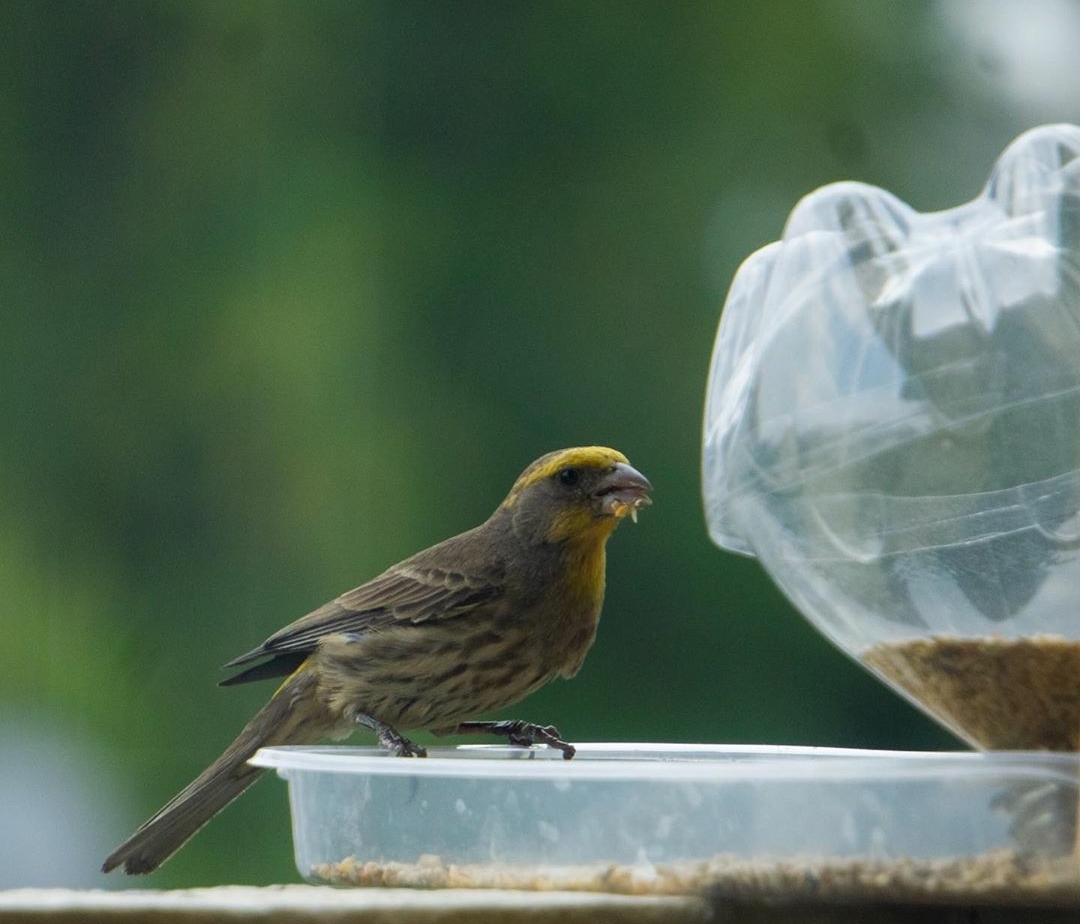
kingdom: Animalia
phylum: Chordata
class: Aves
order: Passeriformes
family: Fringillidae
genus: Haemorhous
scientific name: Haemorhous mexicanus
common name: House finch
